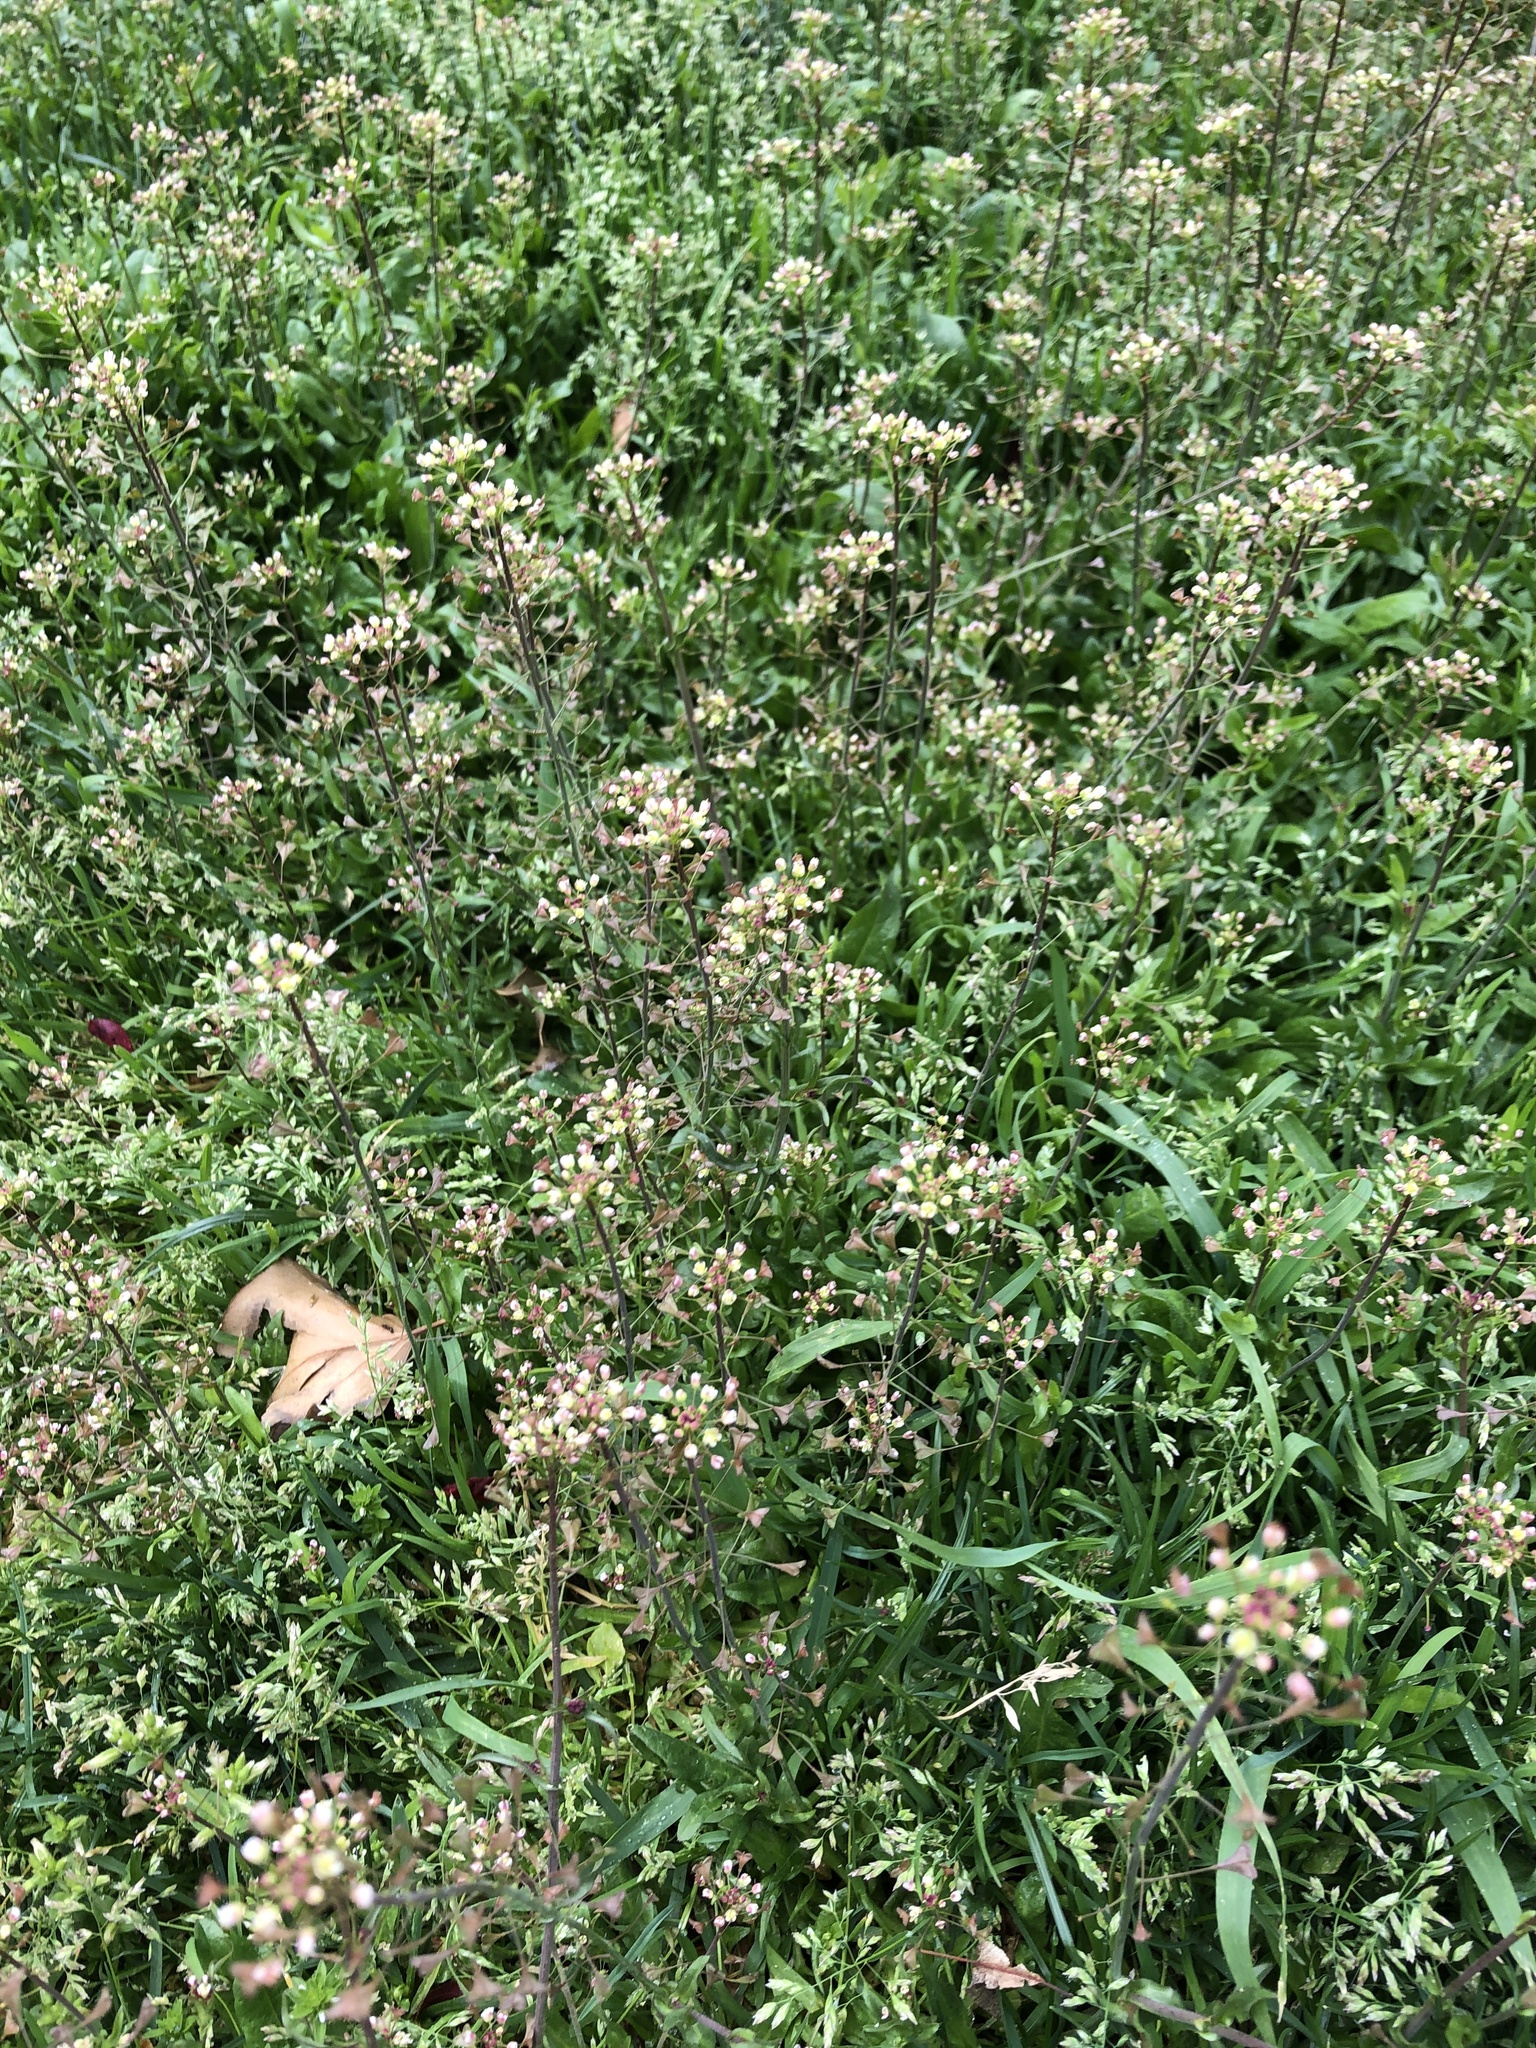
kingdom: Plantae
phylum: Tracheophyta
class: Magnoliopsida
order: Brassicales
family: Brassicaceae
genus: Capsella
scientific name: Capsella bursa-pastoris
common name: Shepherd's purse
